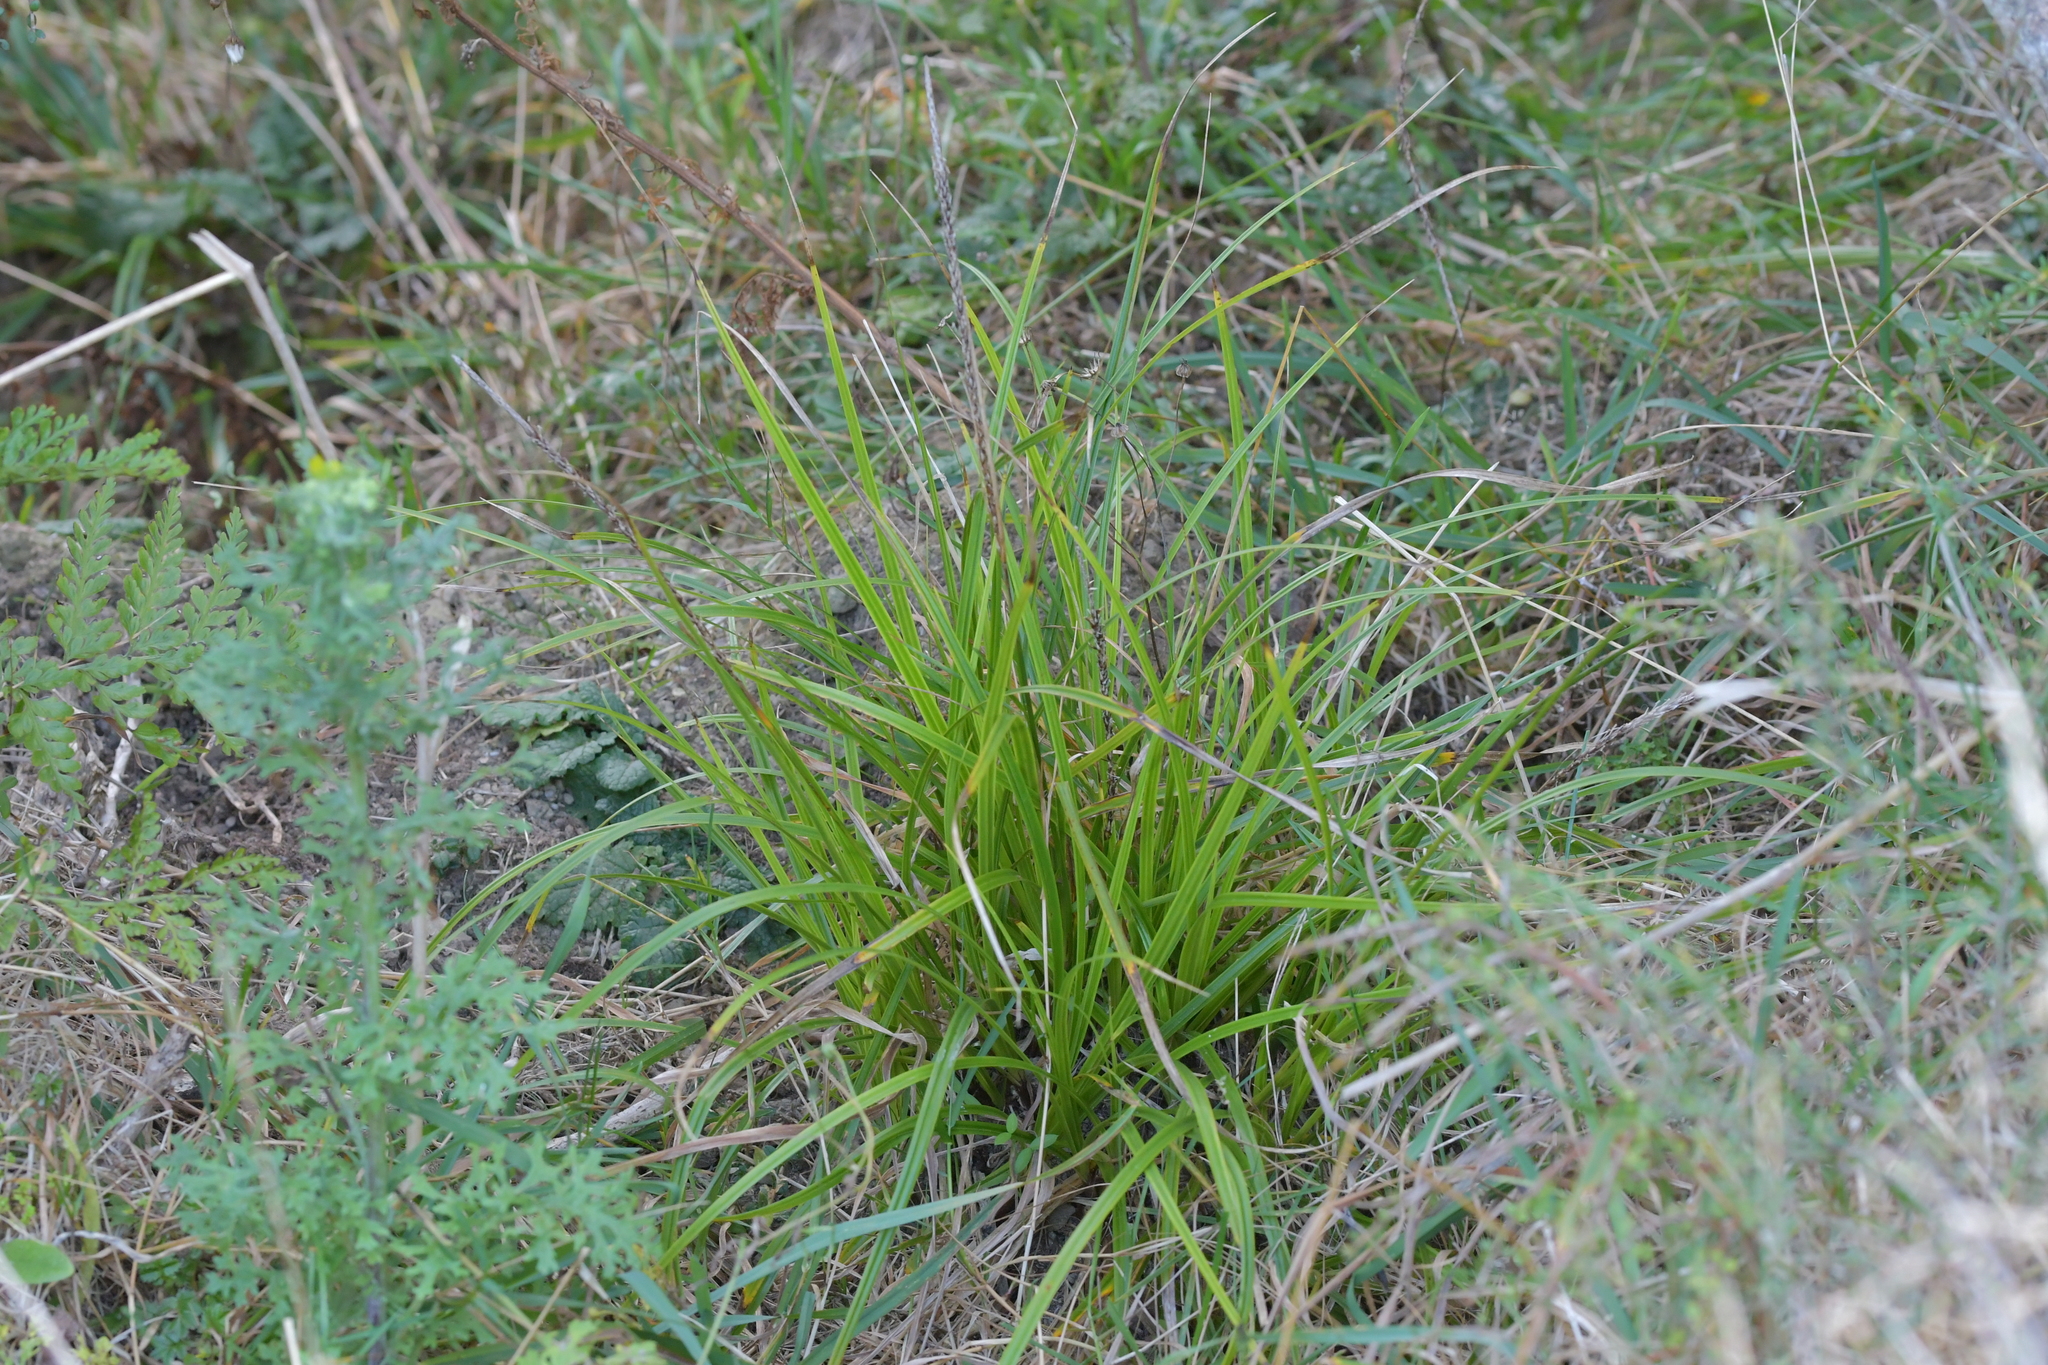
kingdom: Plantae
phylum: Tracheophyta
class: Liliopsida
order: Poales
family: Cyperaceae
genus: Carex
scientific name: Carex uncinata
